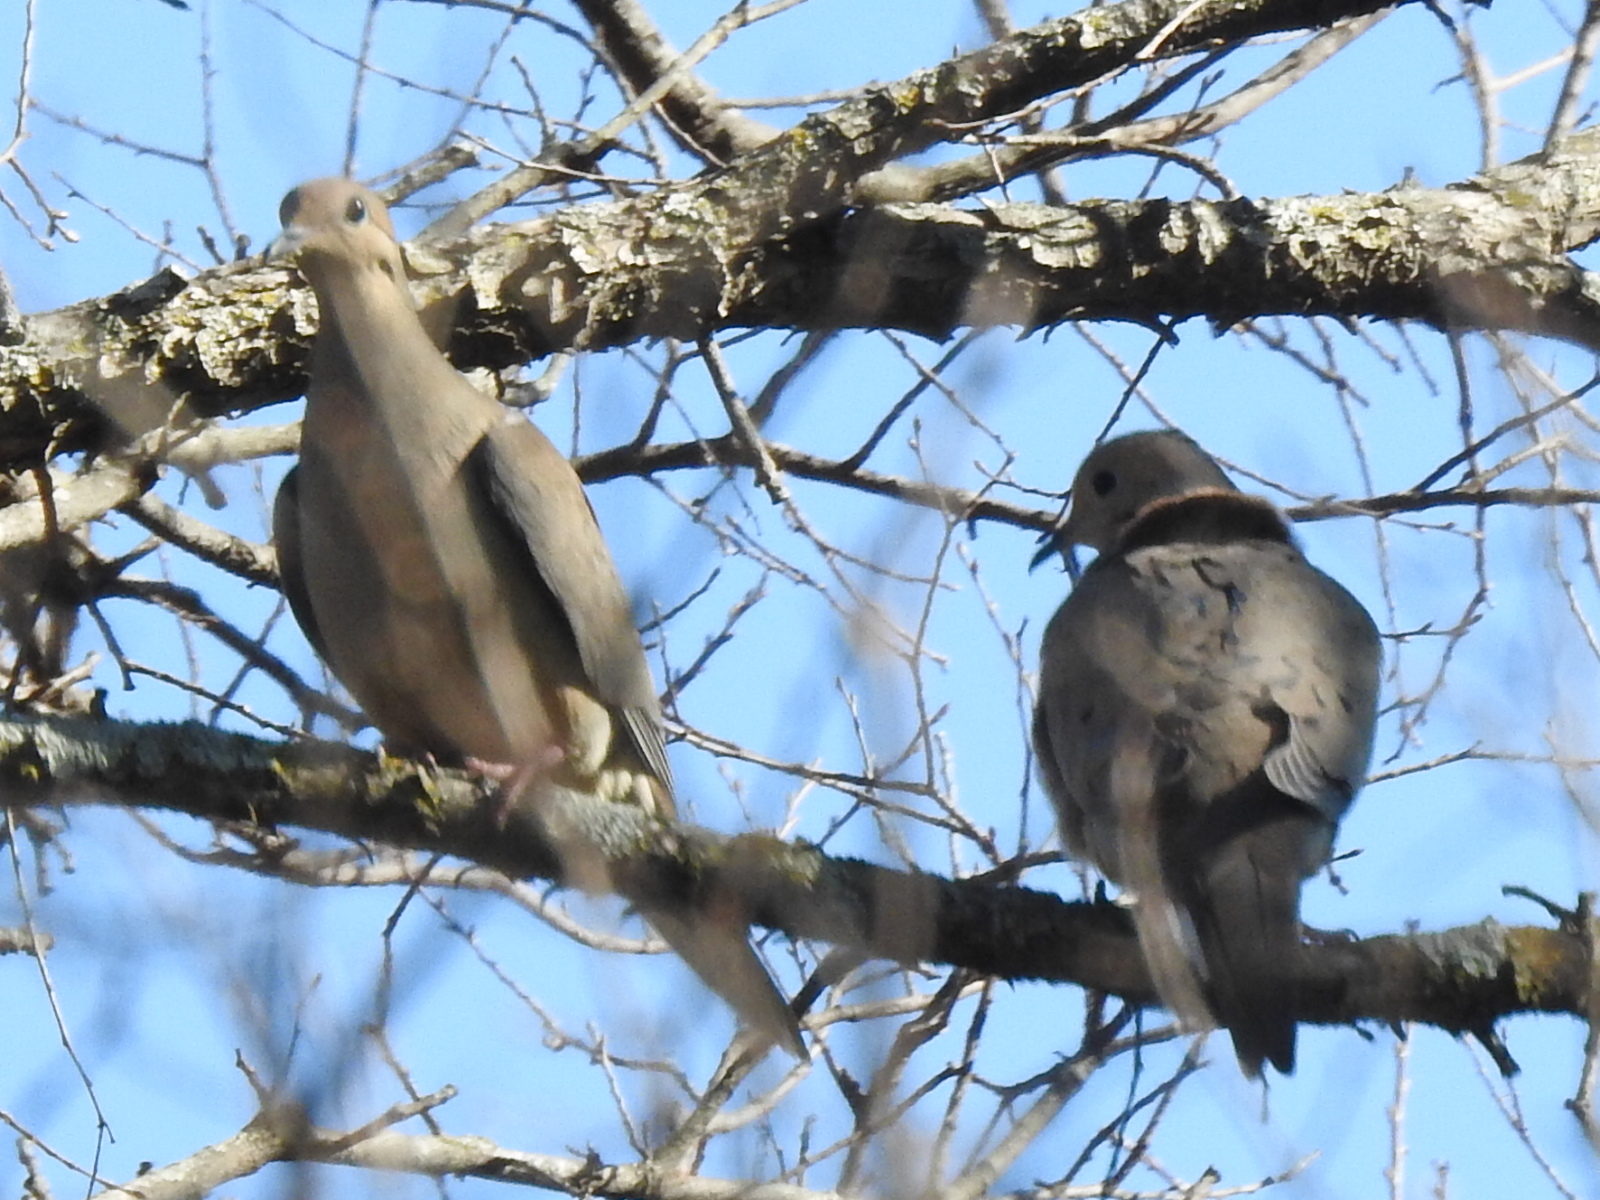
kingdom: Animalia
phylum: Chordata
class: Aves
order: Columbiformes
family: Columbidae
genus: Zenaida
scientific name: Zenaida macroura
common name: Mourning dove
